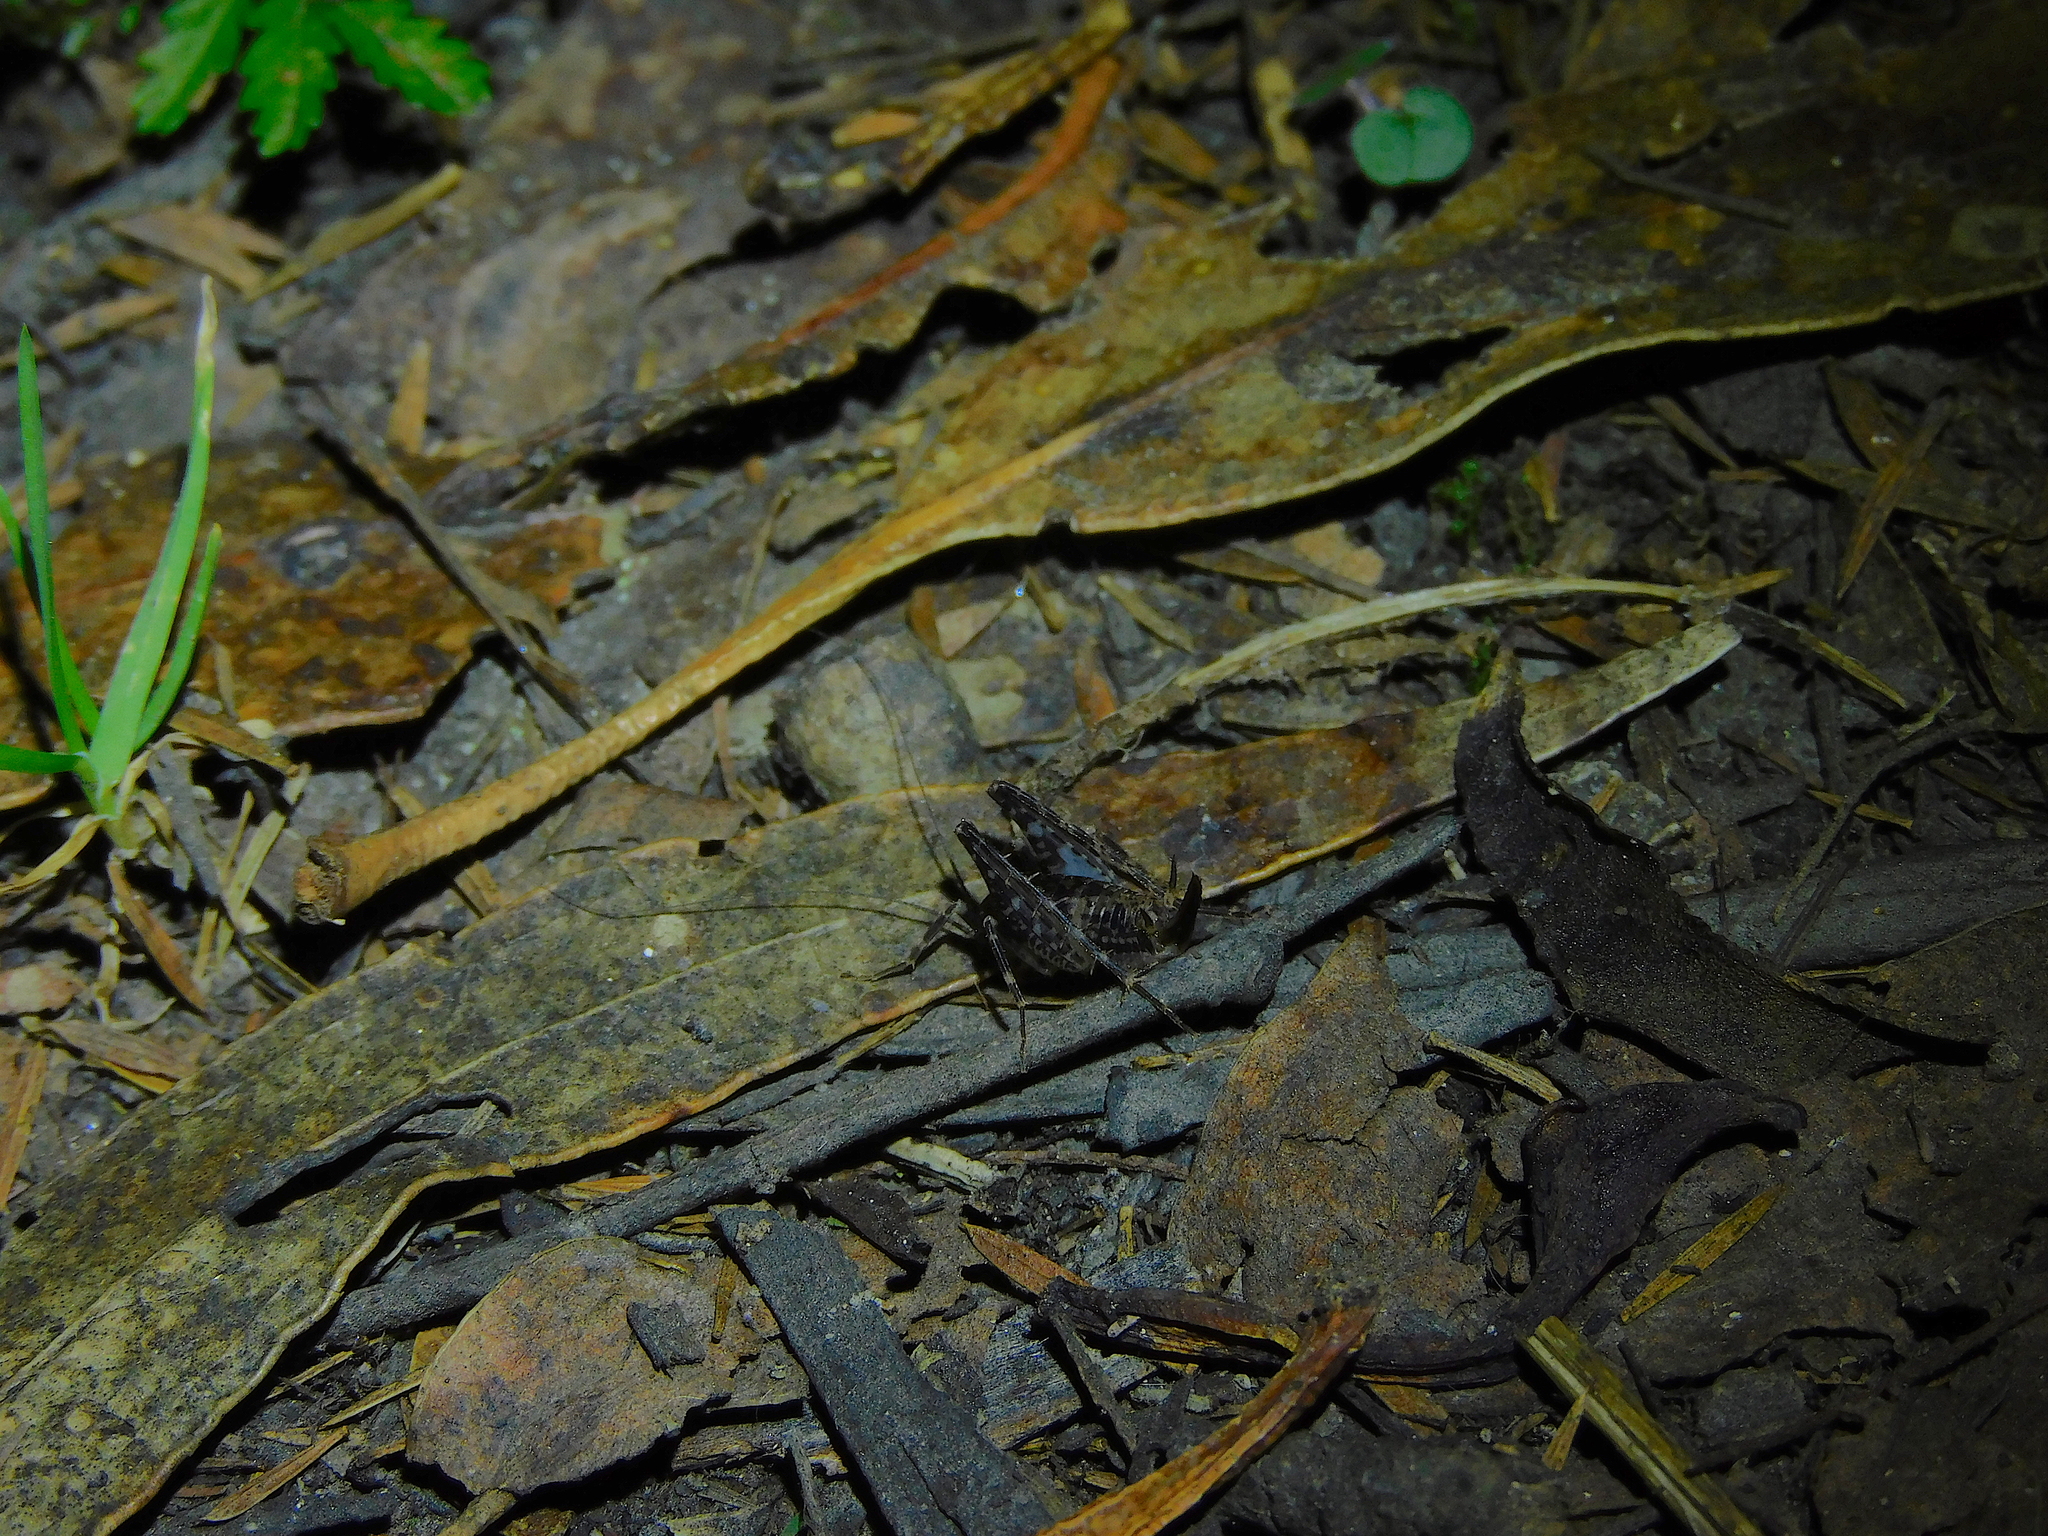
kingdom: Animalia
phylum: Arthropoda
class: Insecta
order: Orthoptera
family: Rhaphidophoridae
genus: Parvotettix
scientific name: Parvotettix domesticus
